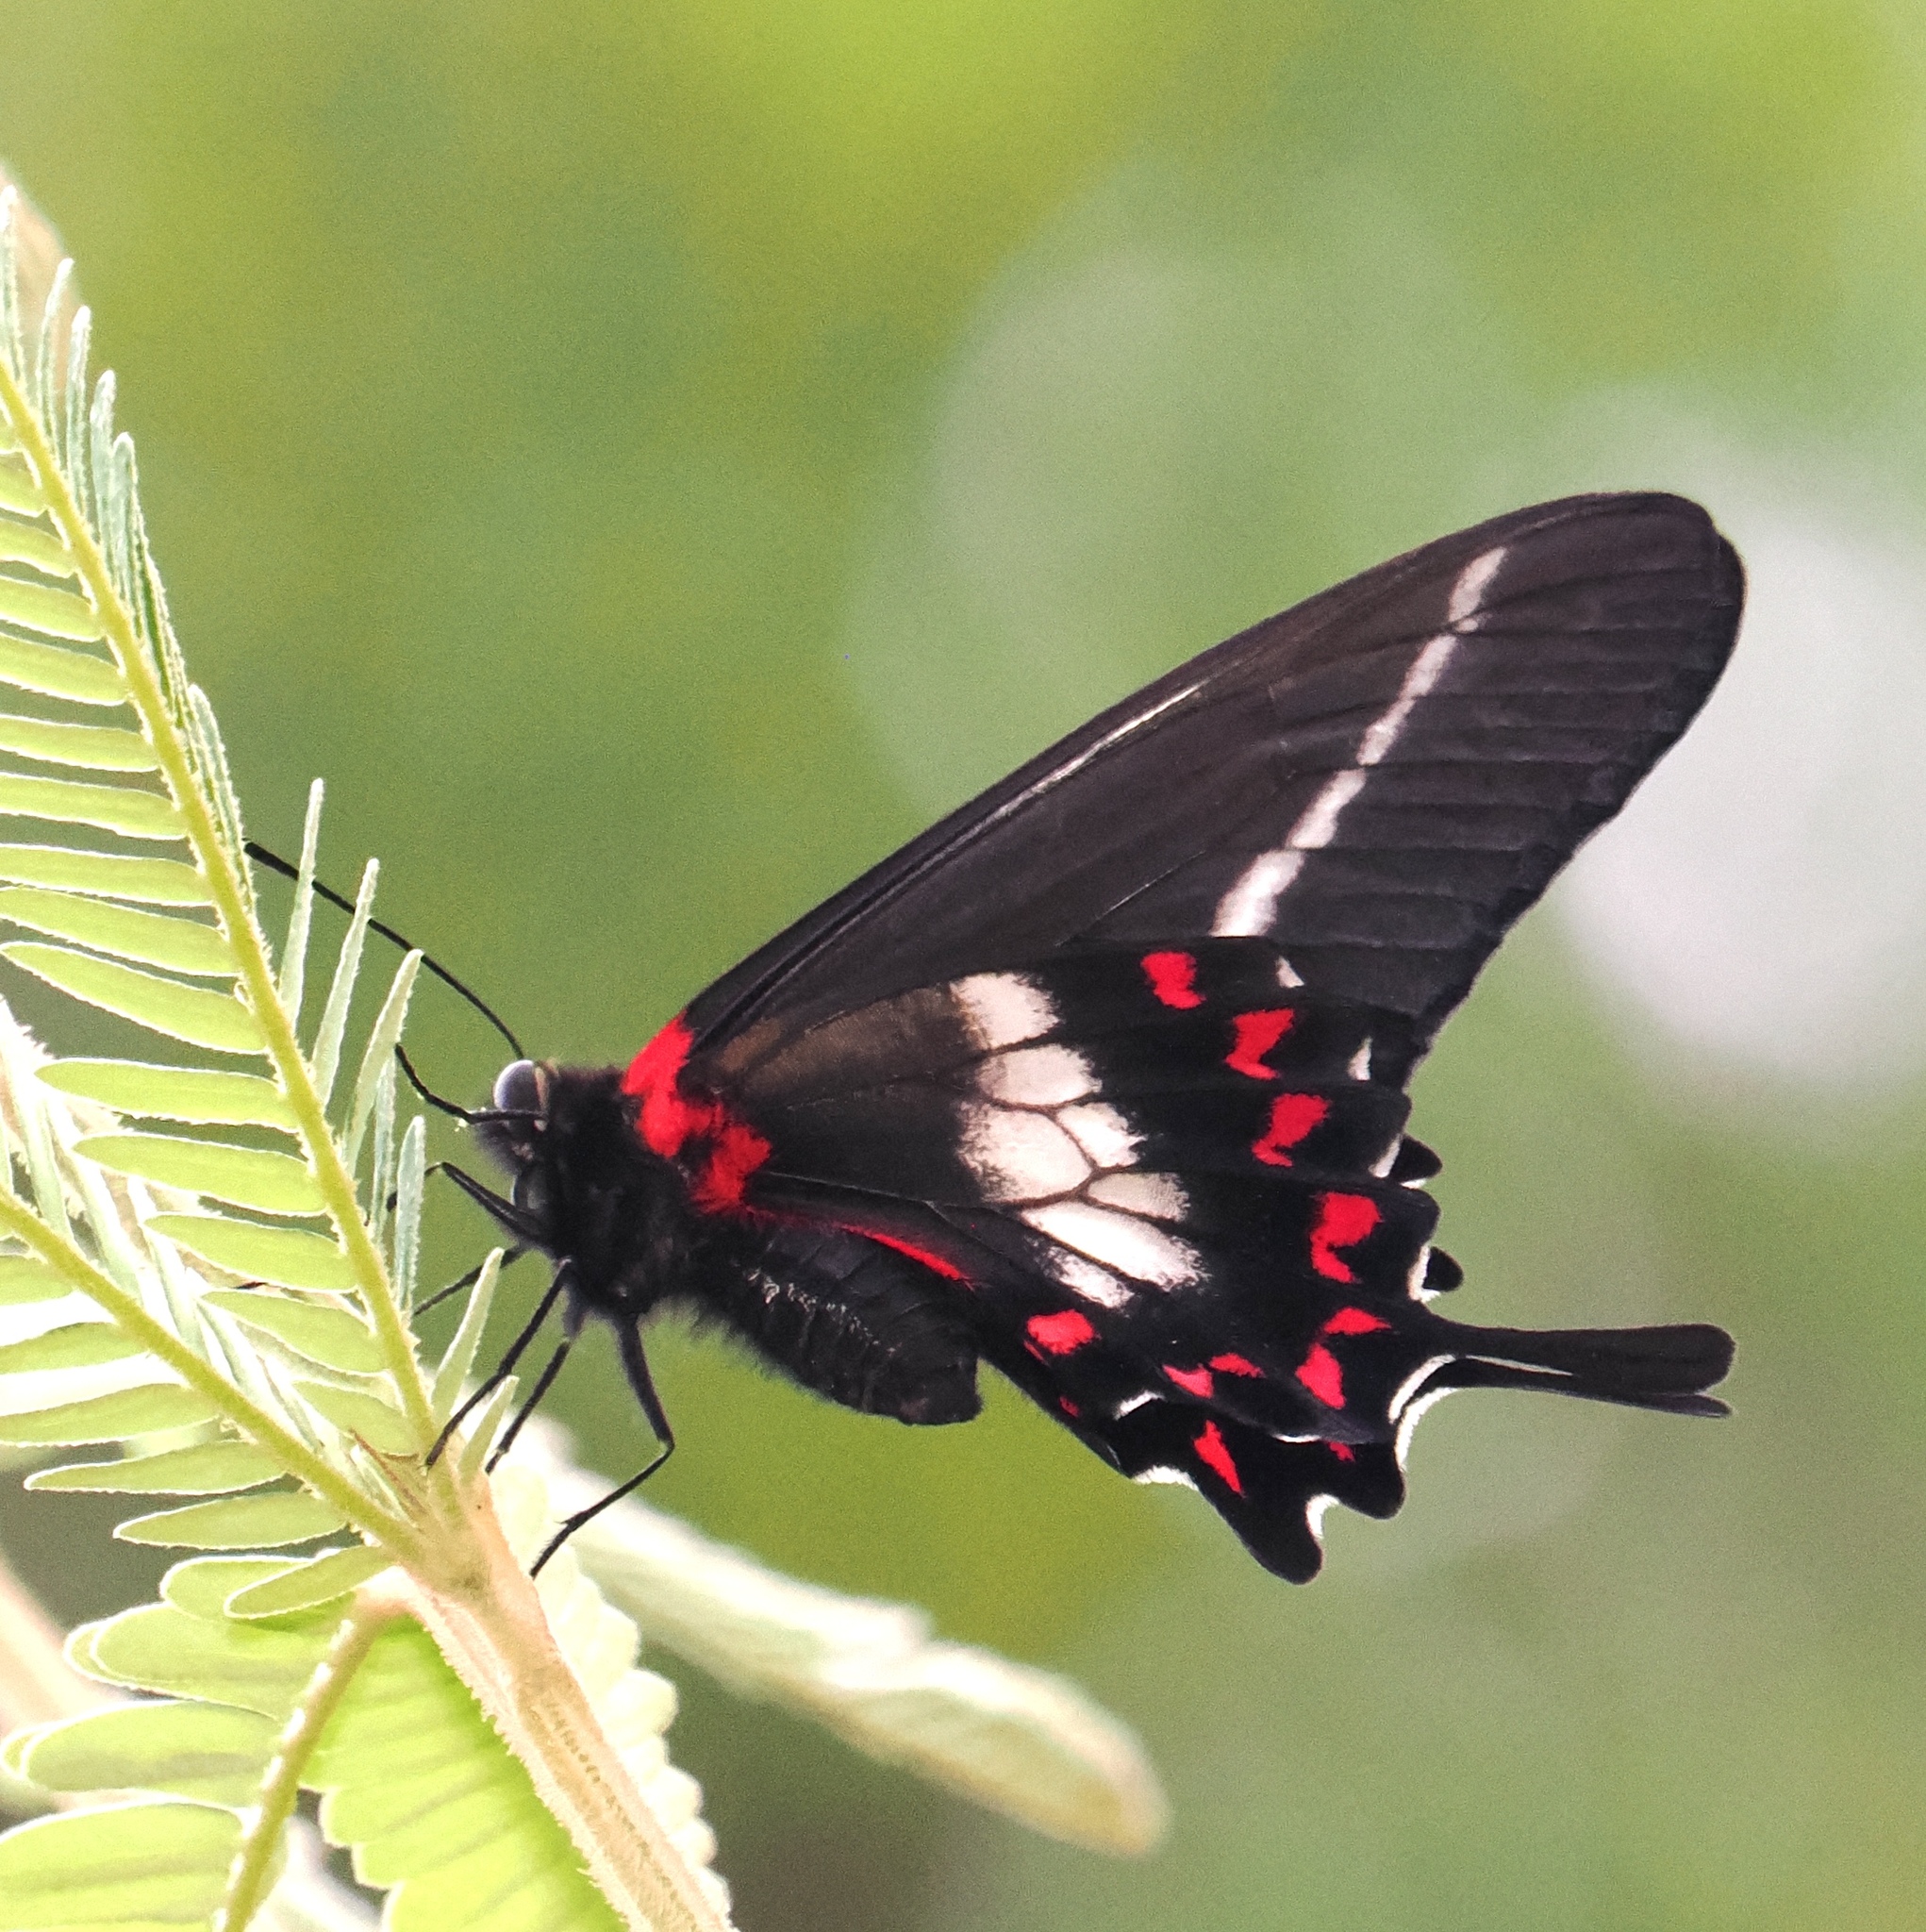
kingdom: Animalia
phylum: Arthropoda
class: Insecta
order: Lepidoptera
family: Papilionidae
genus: Mimoides
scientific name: Mimoides lysithous
